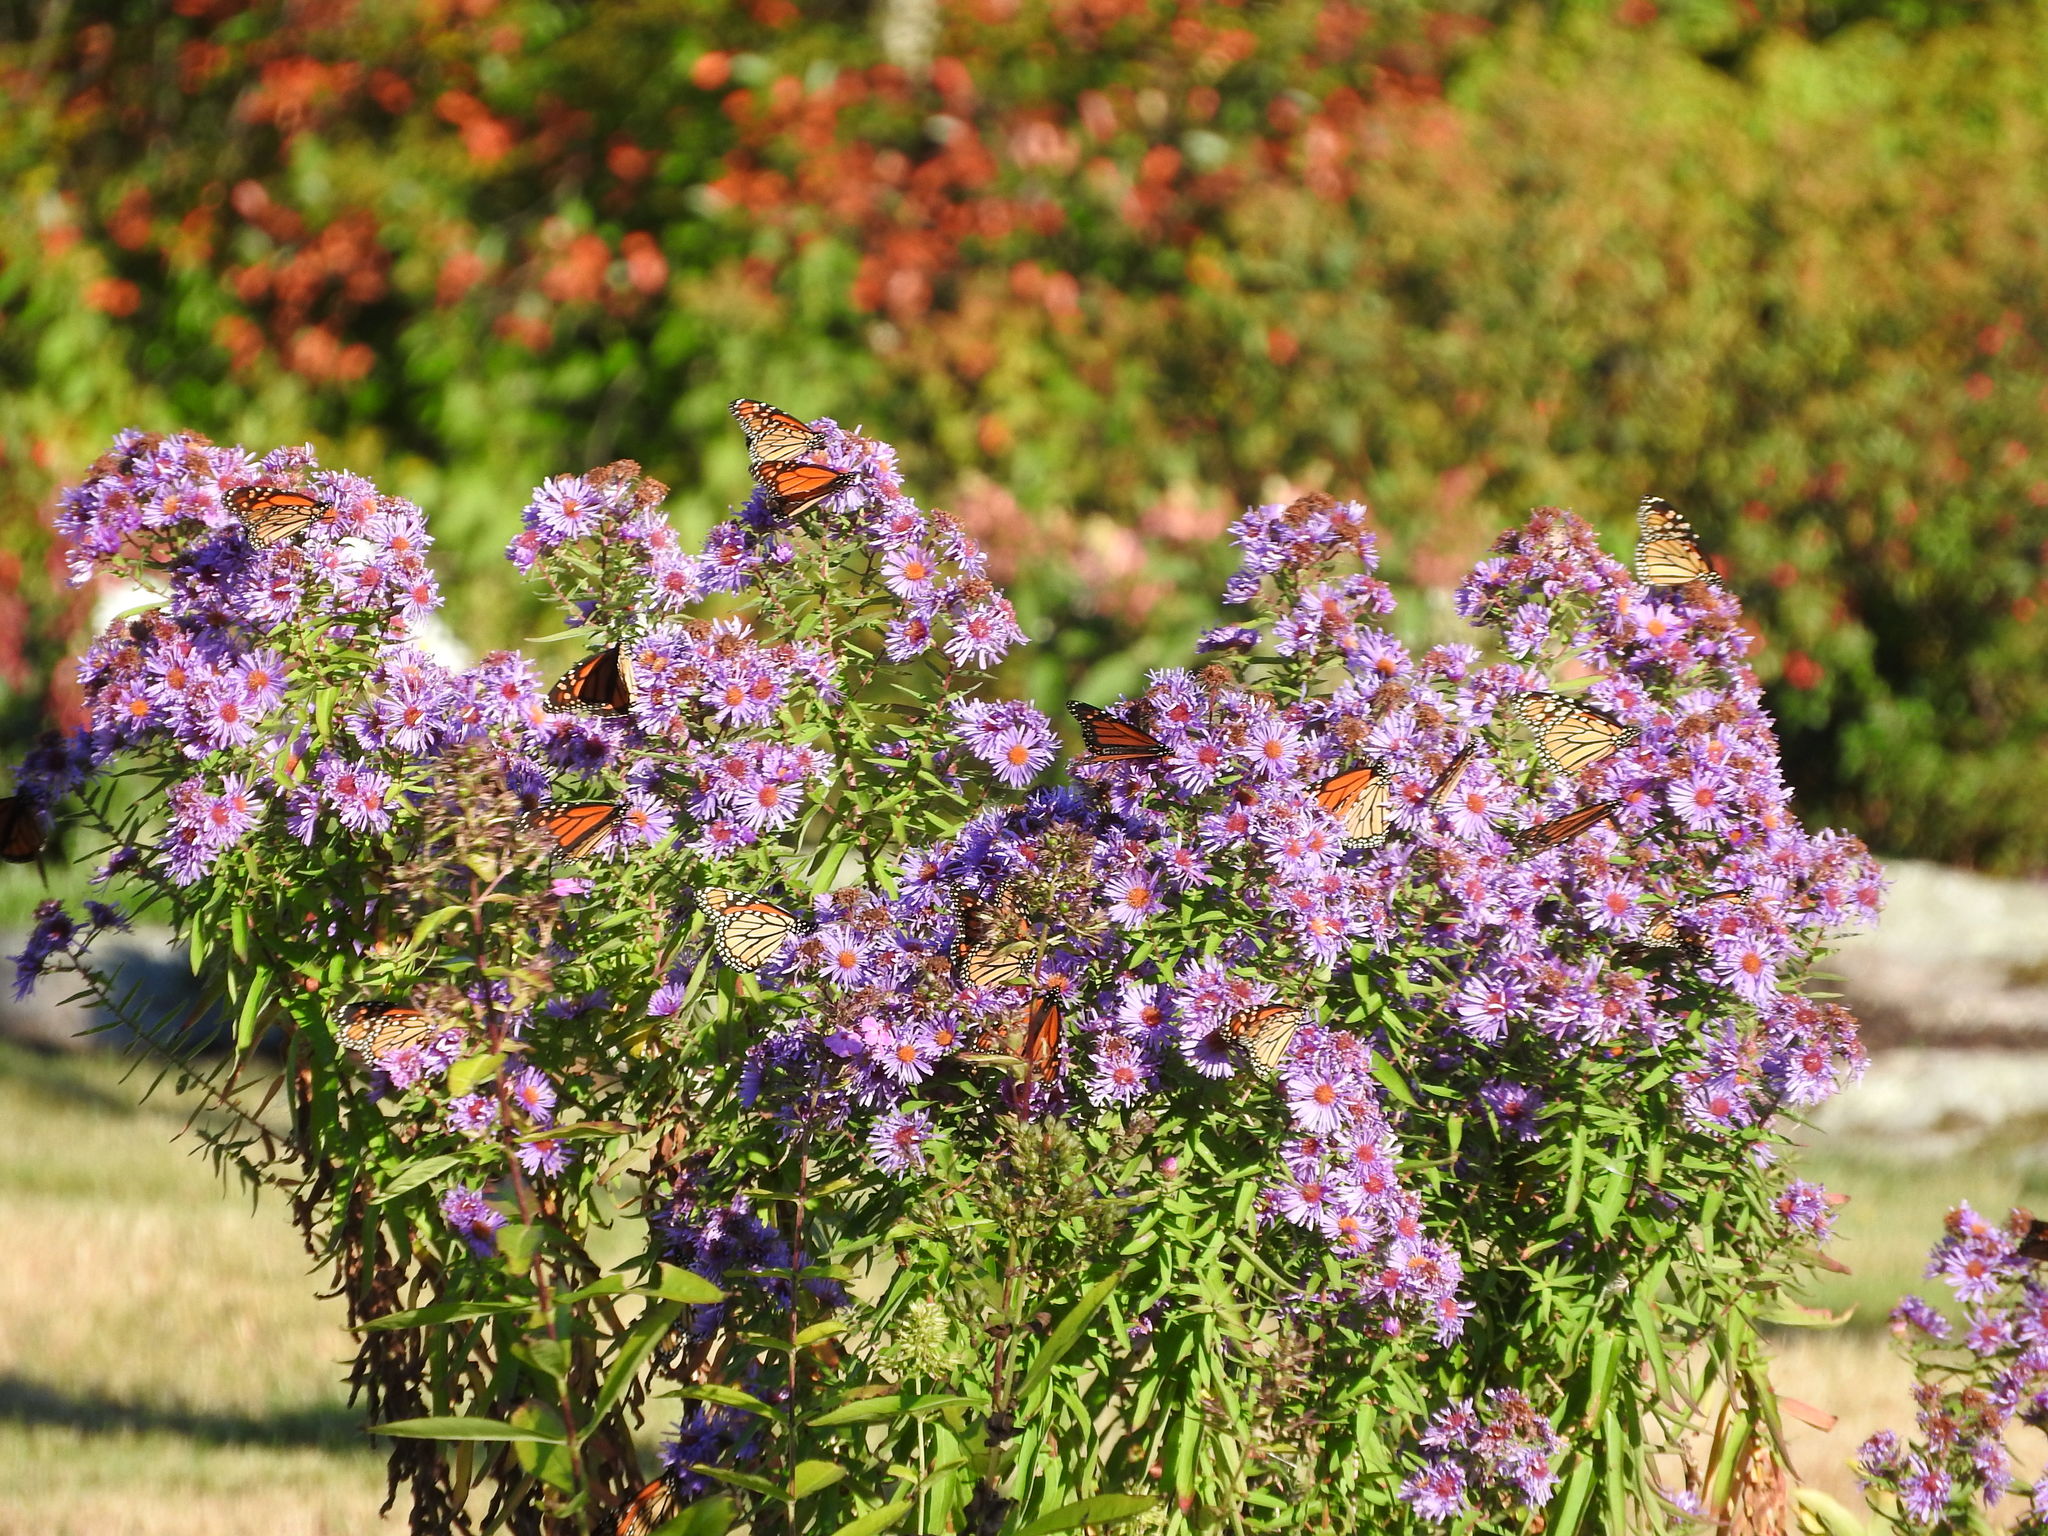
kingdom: Animalia
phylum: Arthropoda
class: Insecta
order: Lepidoptera
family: Nymphalidae
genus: Danaus
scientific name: Danaus plexippus
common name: Monarch
